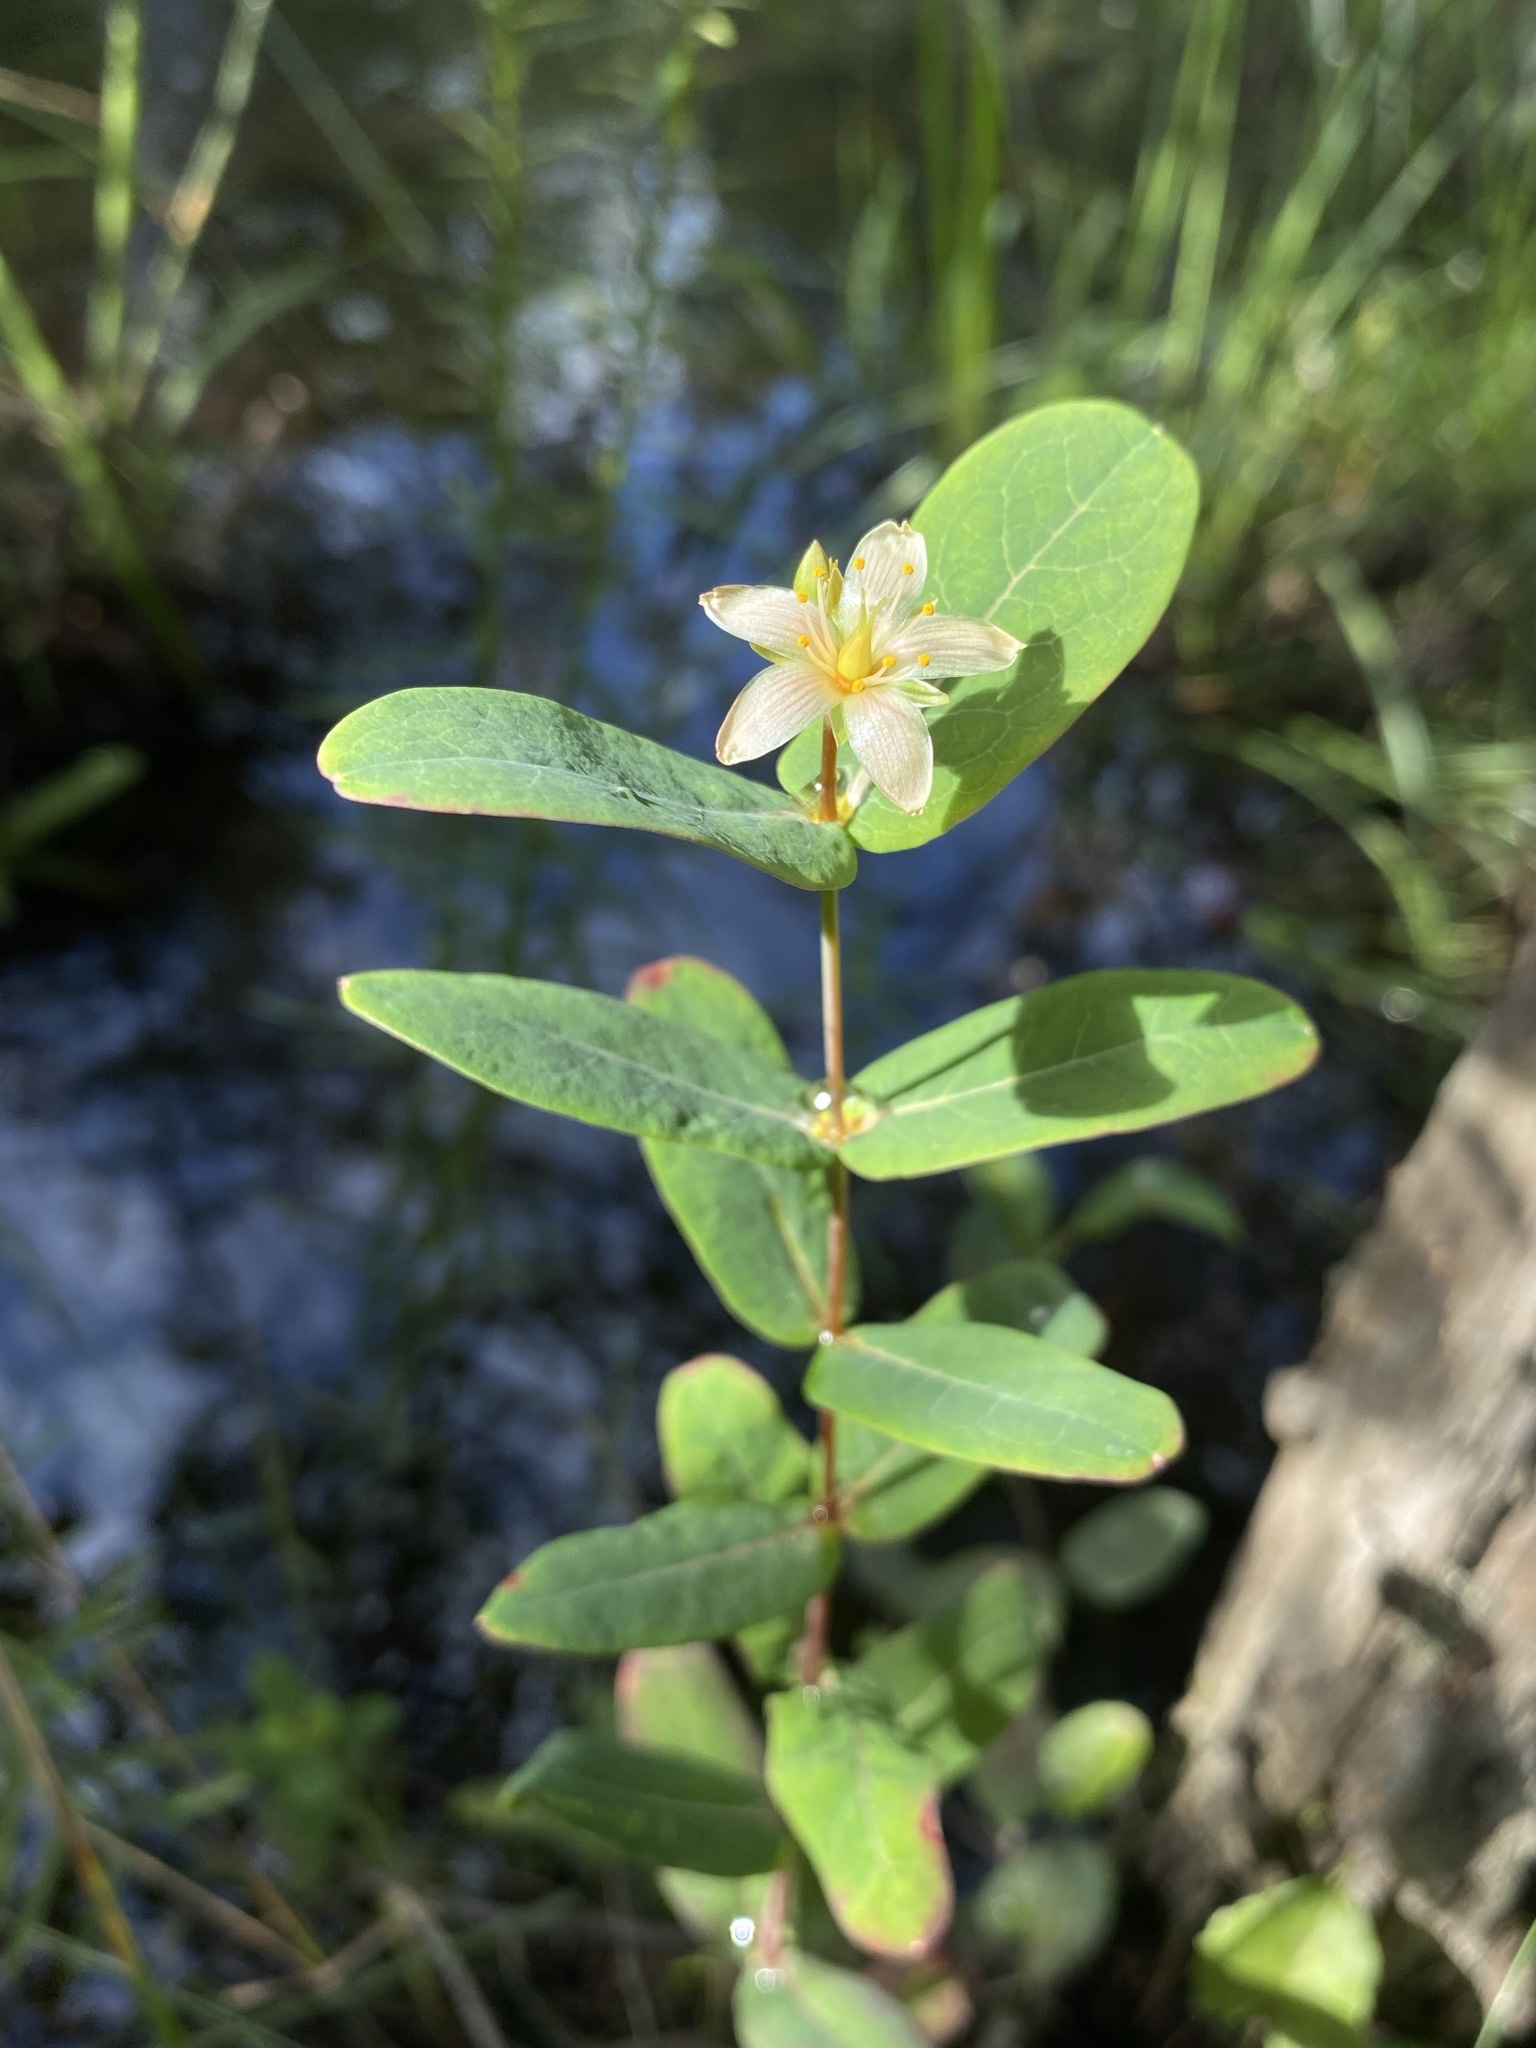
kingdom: Plantae
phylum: Tracheophyta
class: Magnoliopsida
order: Malpighiales
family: Hypericaceae
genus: Triadenum
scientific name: Triadenum virginicum
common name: Marsh st. john's-wort
